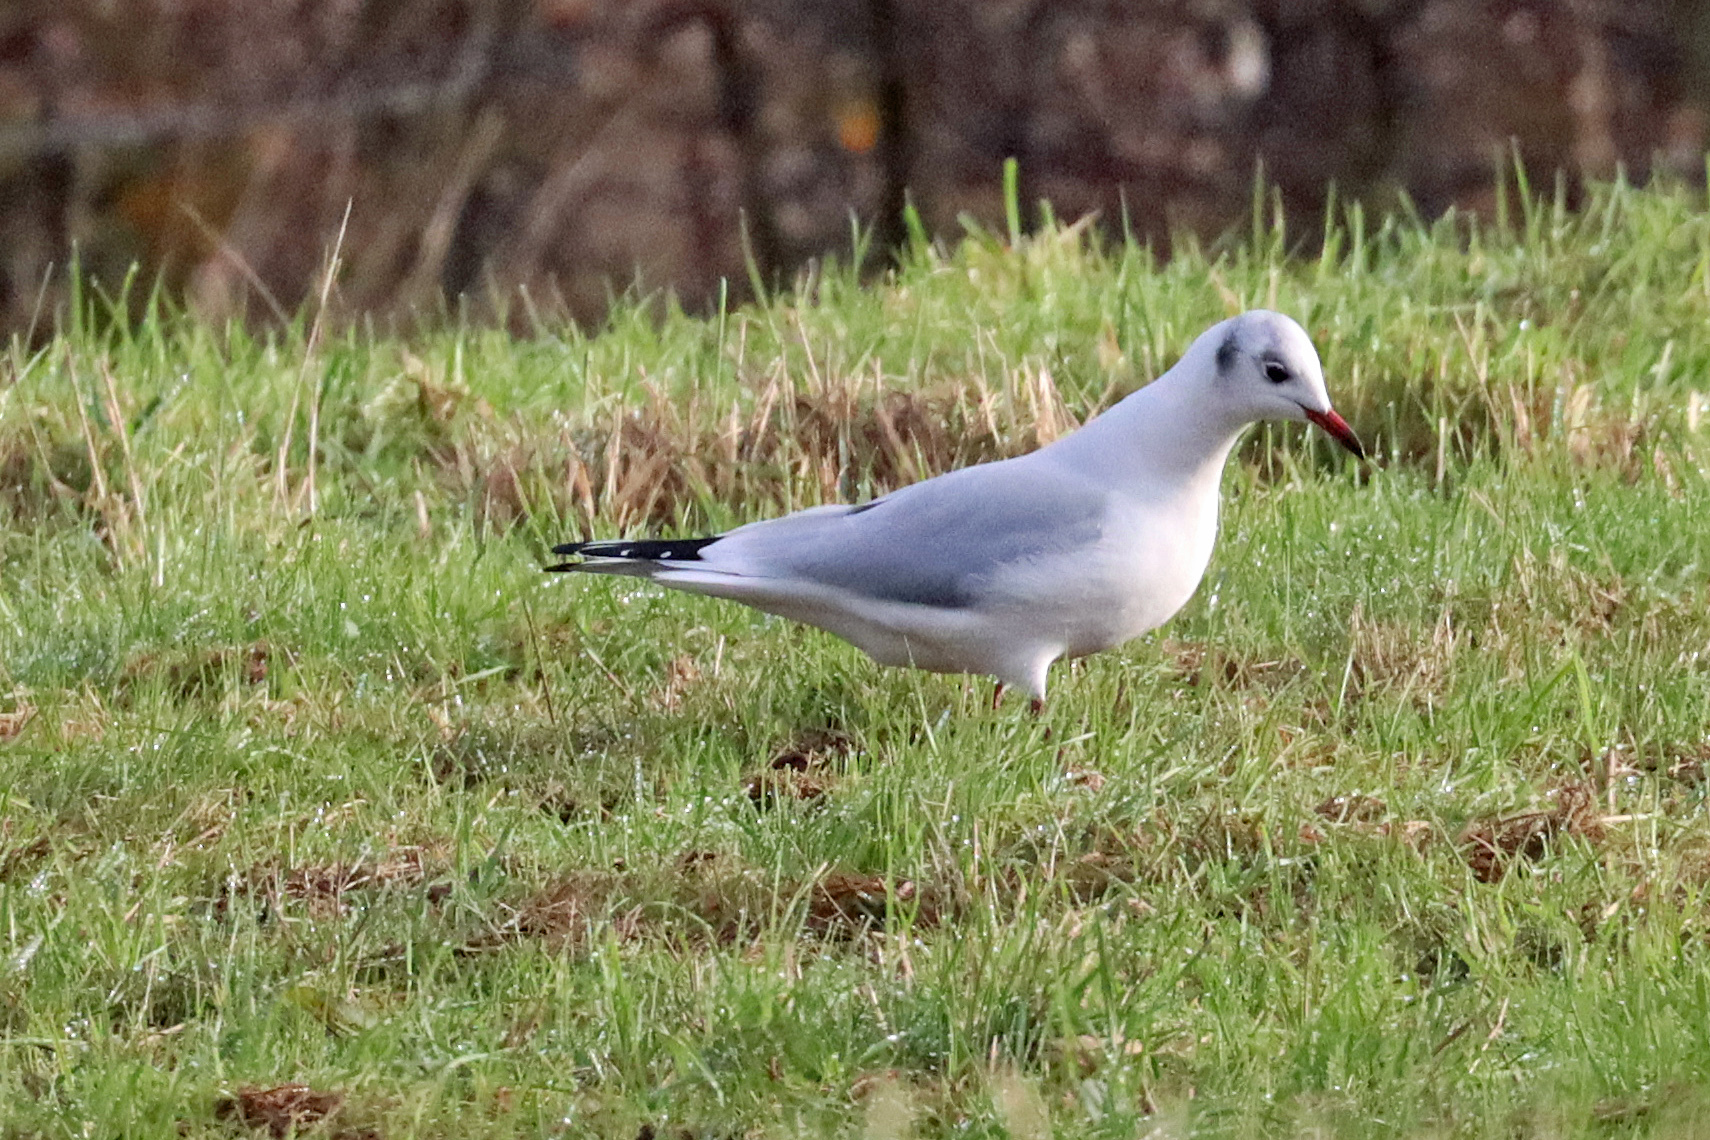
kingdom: Animalia
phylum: Chordata
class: Aves
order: Charadriiformes
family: Laridae
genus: Chroicocephalus
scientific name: Chroicocephalus ridibundus
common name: Black-headed gull
